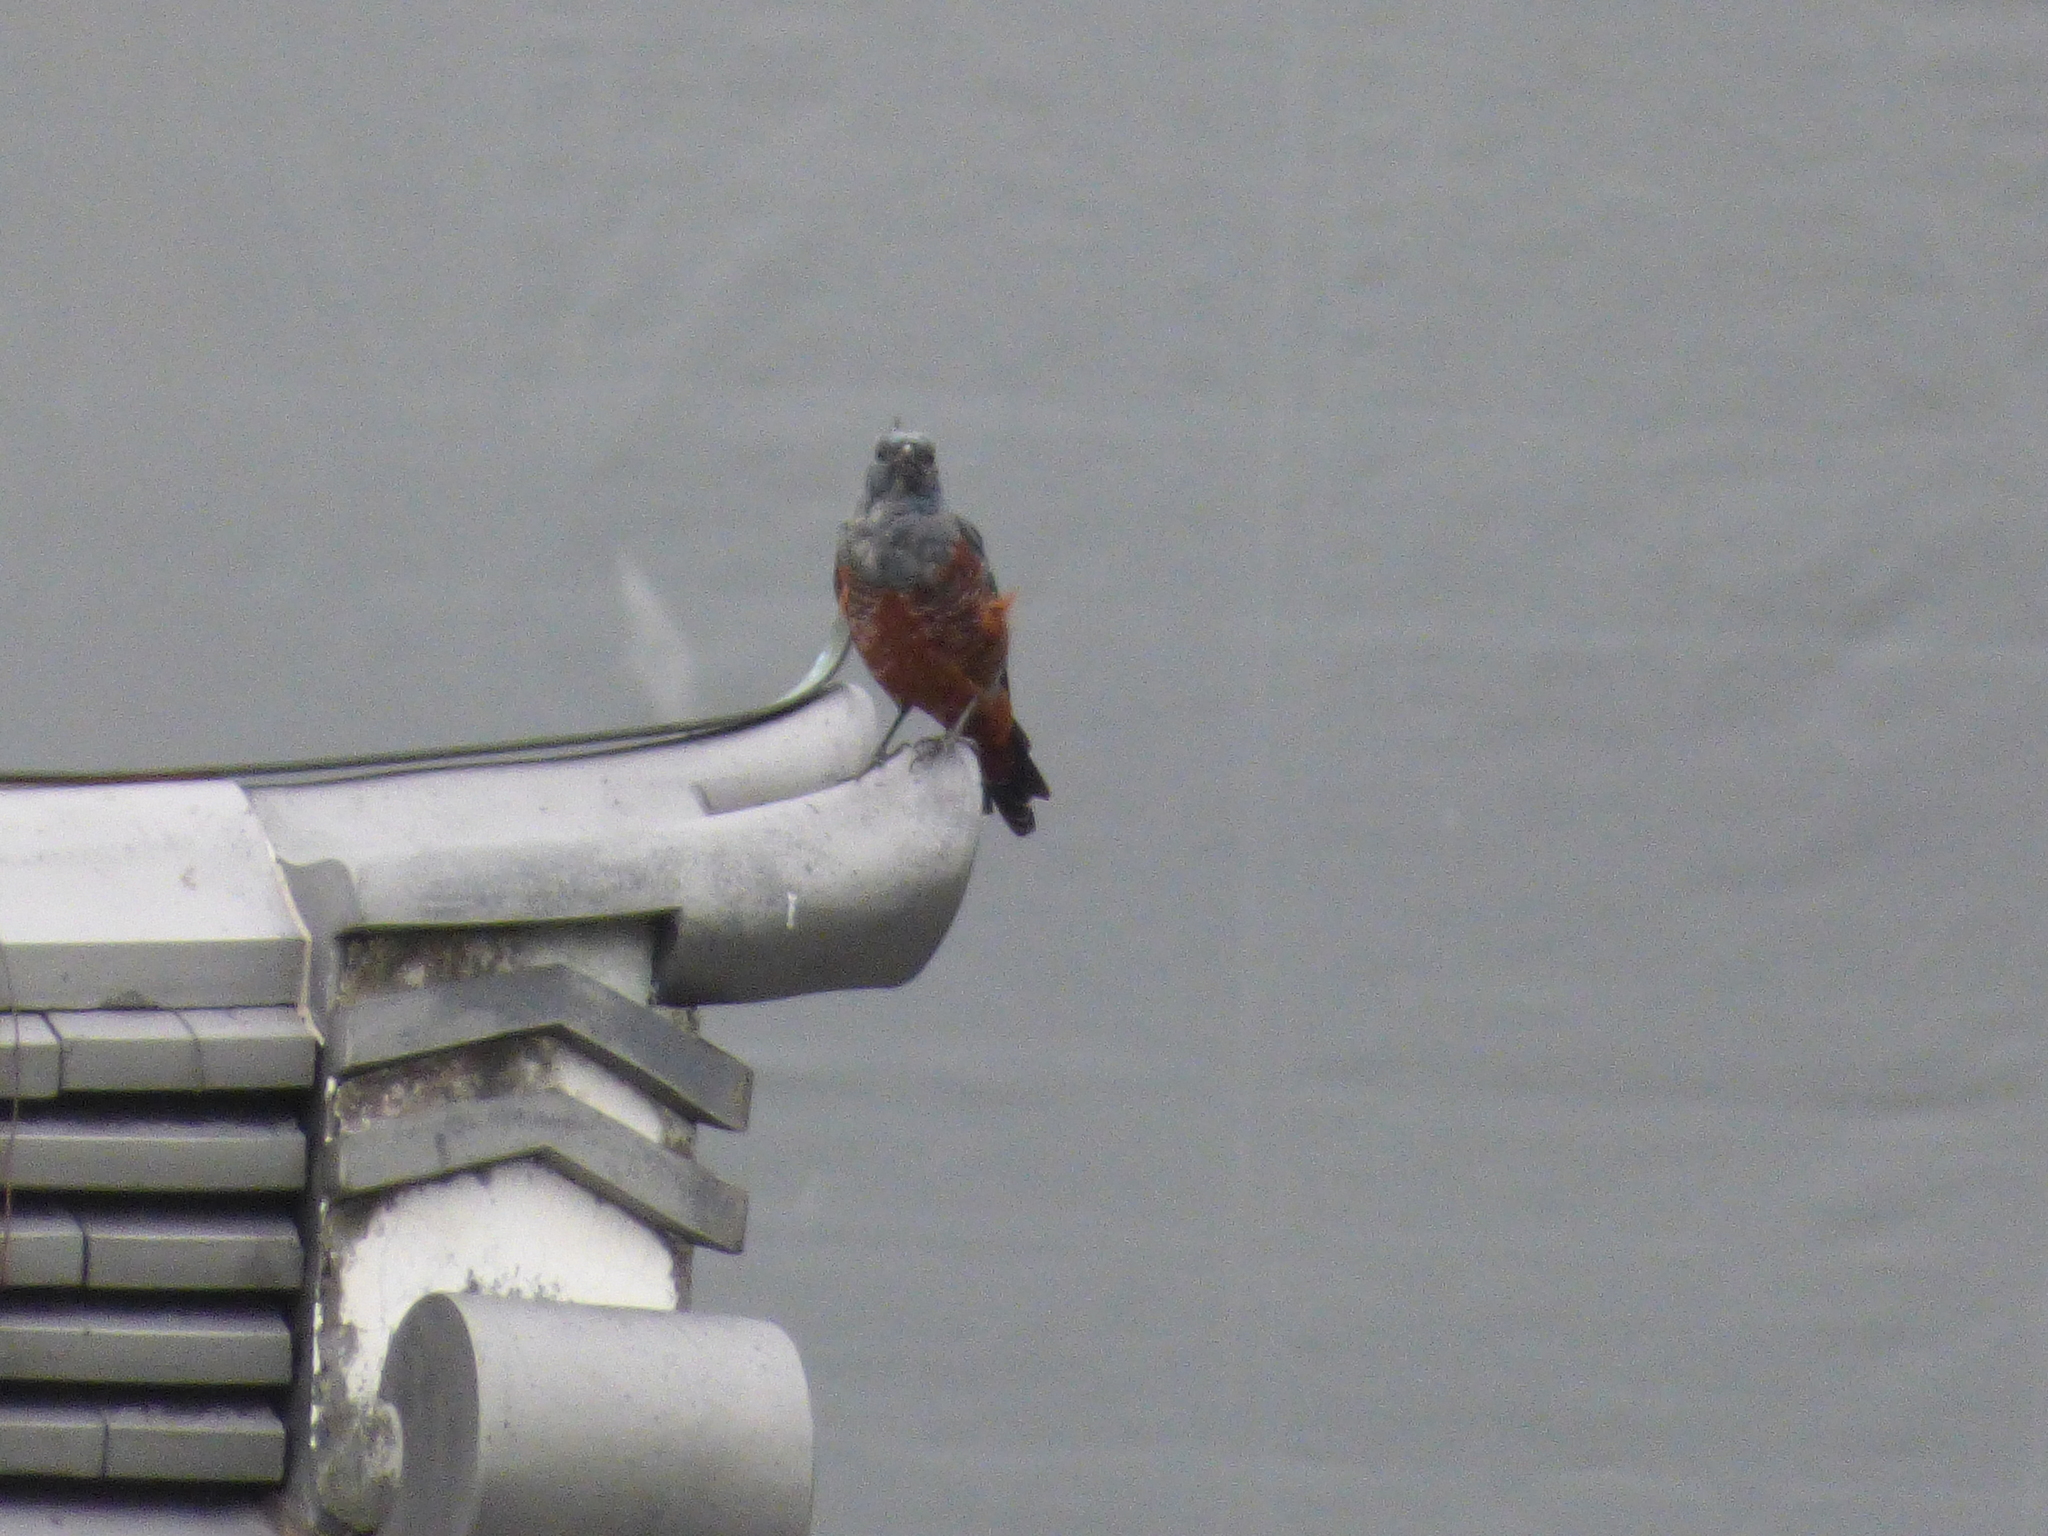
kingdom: Animalia
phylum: Chordata
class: Aves
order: Passeriformes
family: Muscicapidae
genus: Monticola
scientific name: Monticola solitarius
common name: Blue rock thrush
